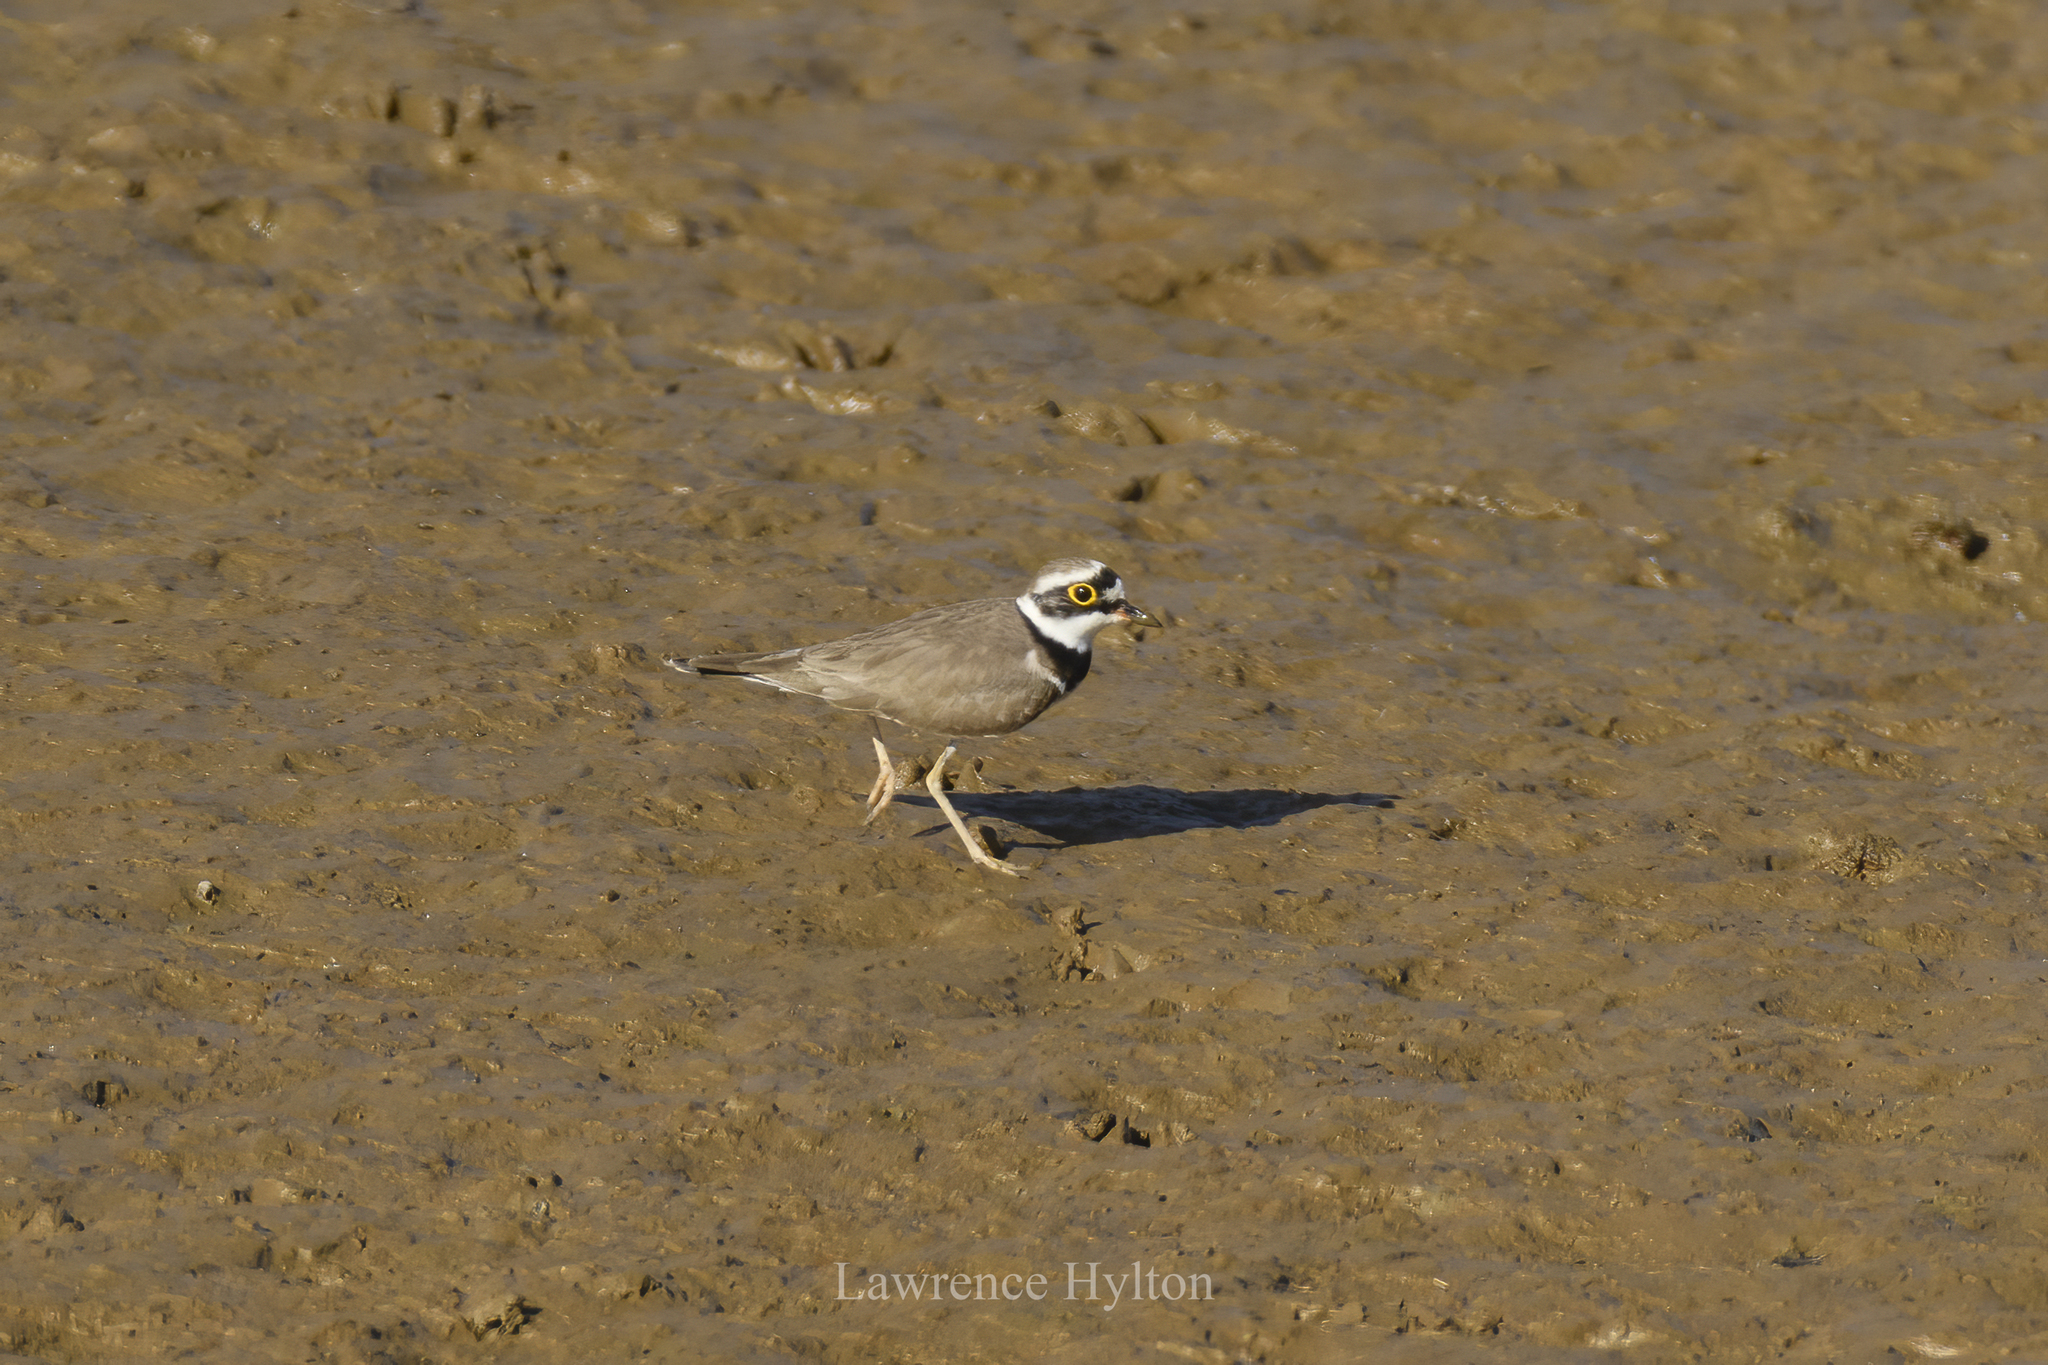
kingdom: Animalia
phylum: Chordata
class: Aves
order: Charadriiformes
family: Charadriidae
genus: Charadrius
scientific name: Charadrius dubius
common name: Little ringed plover
